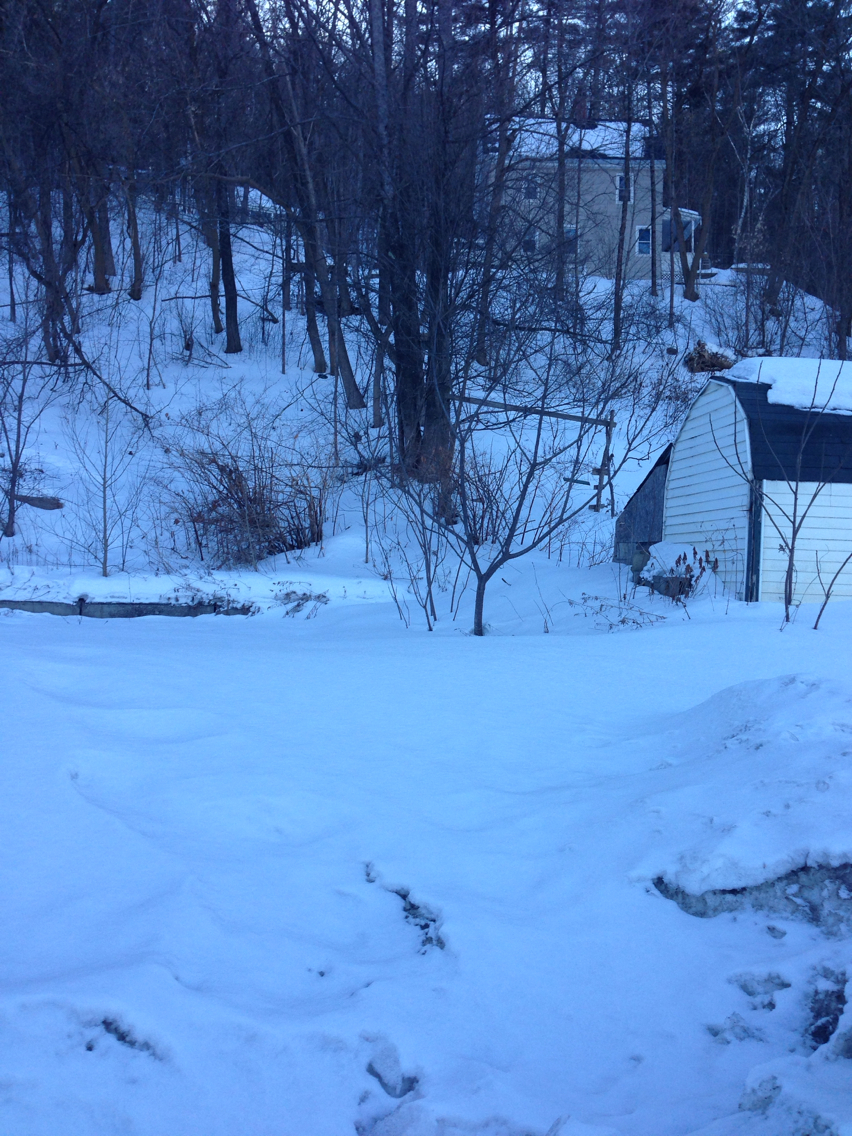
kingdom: Plantae
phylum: Tracheophyta
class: Magnoliopsida
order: Caryophyllales
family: Polygonaceae
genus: Reynoutria
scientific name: Reynoutria japonica
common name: Japanese knotweed
